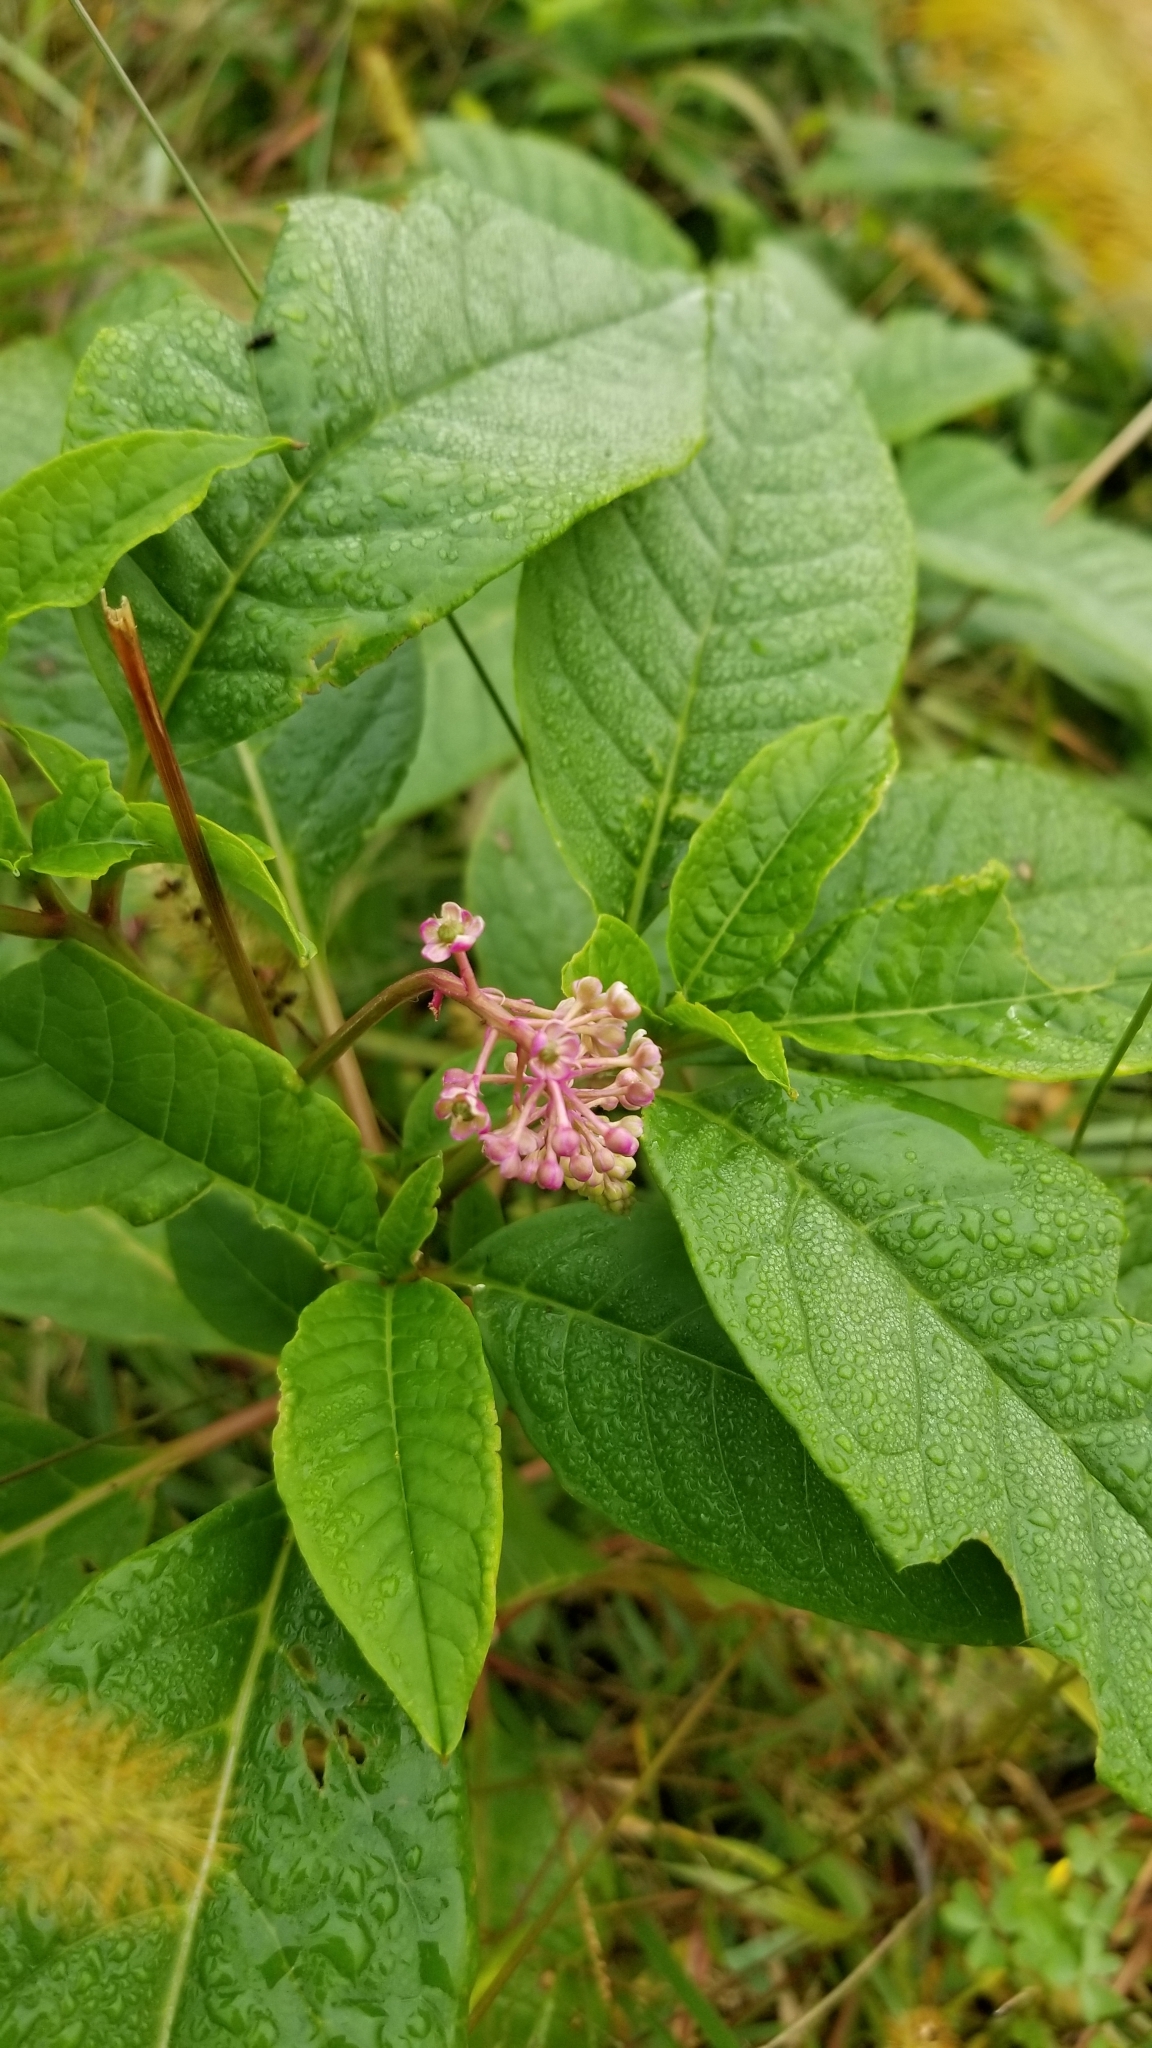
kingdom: Plantae
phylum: Tracheophyta
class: Magnoliopsida
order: Caryophyllales
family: Phytolaccaceae
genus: Phytolacca
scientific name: Phytolacca americana
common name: American pokeweed
